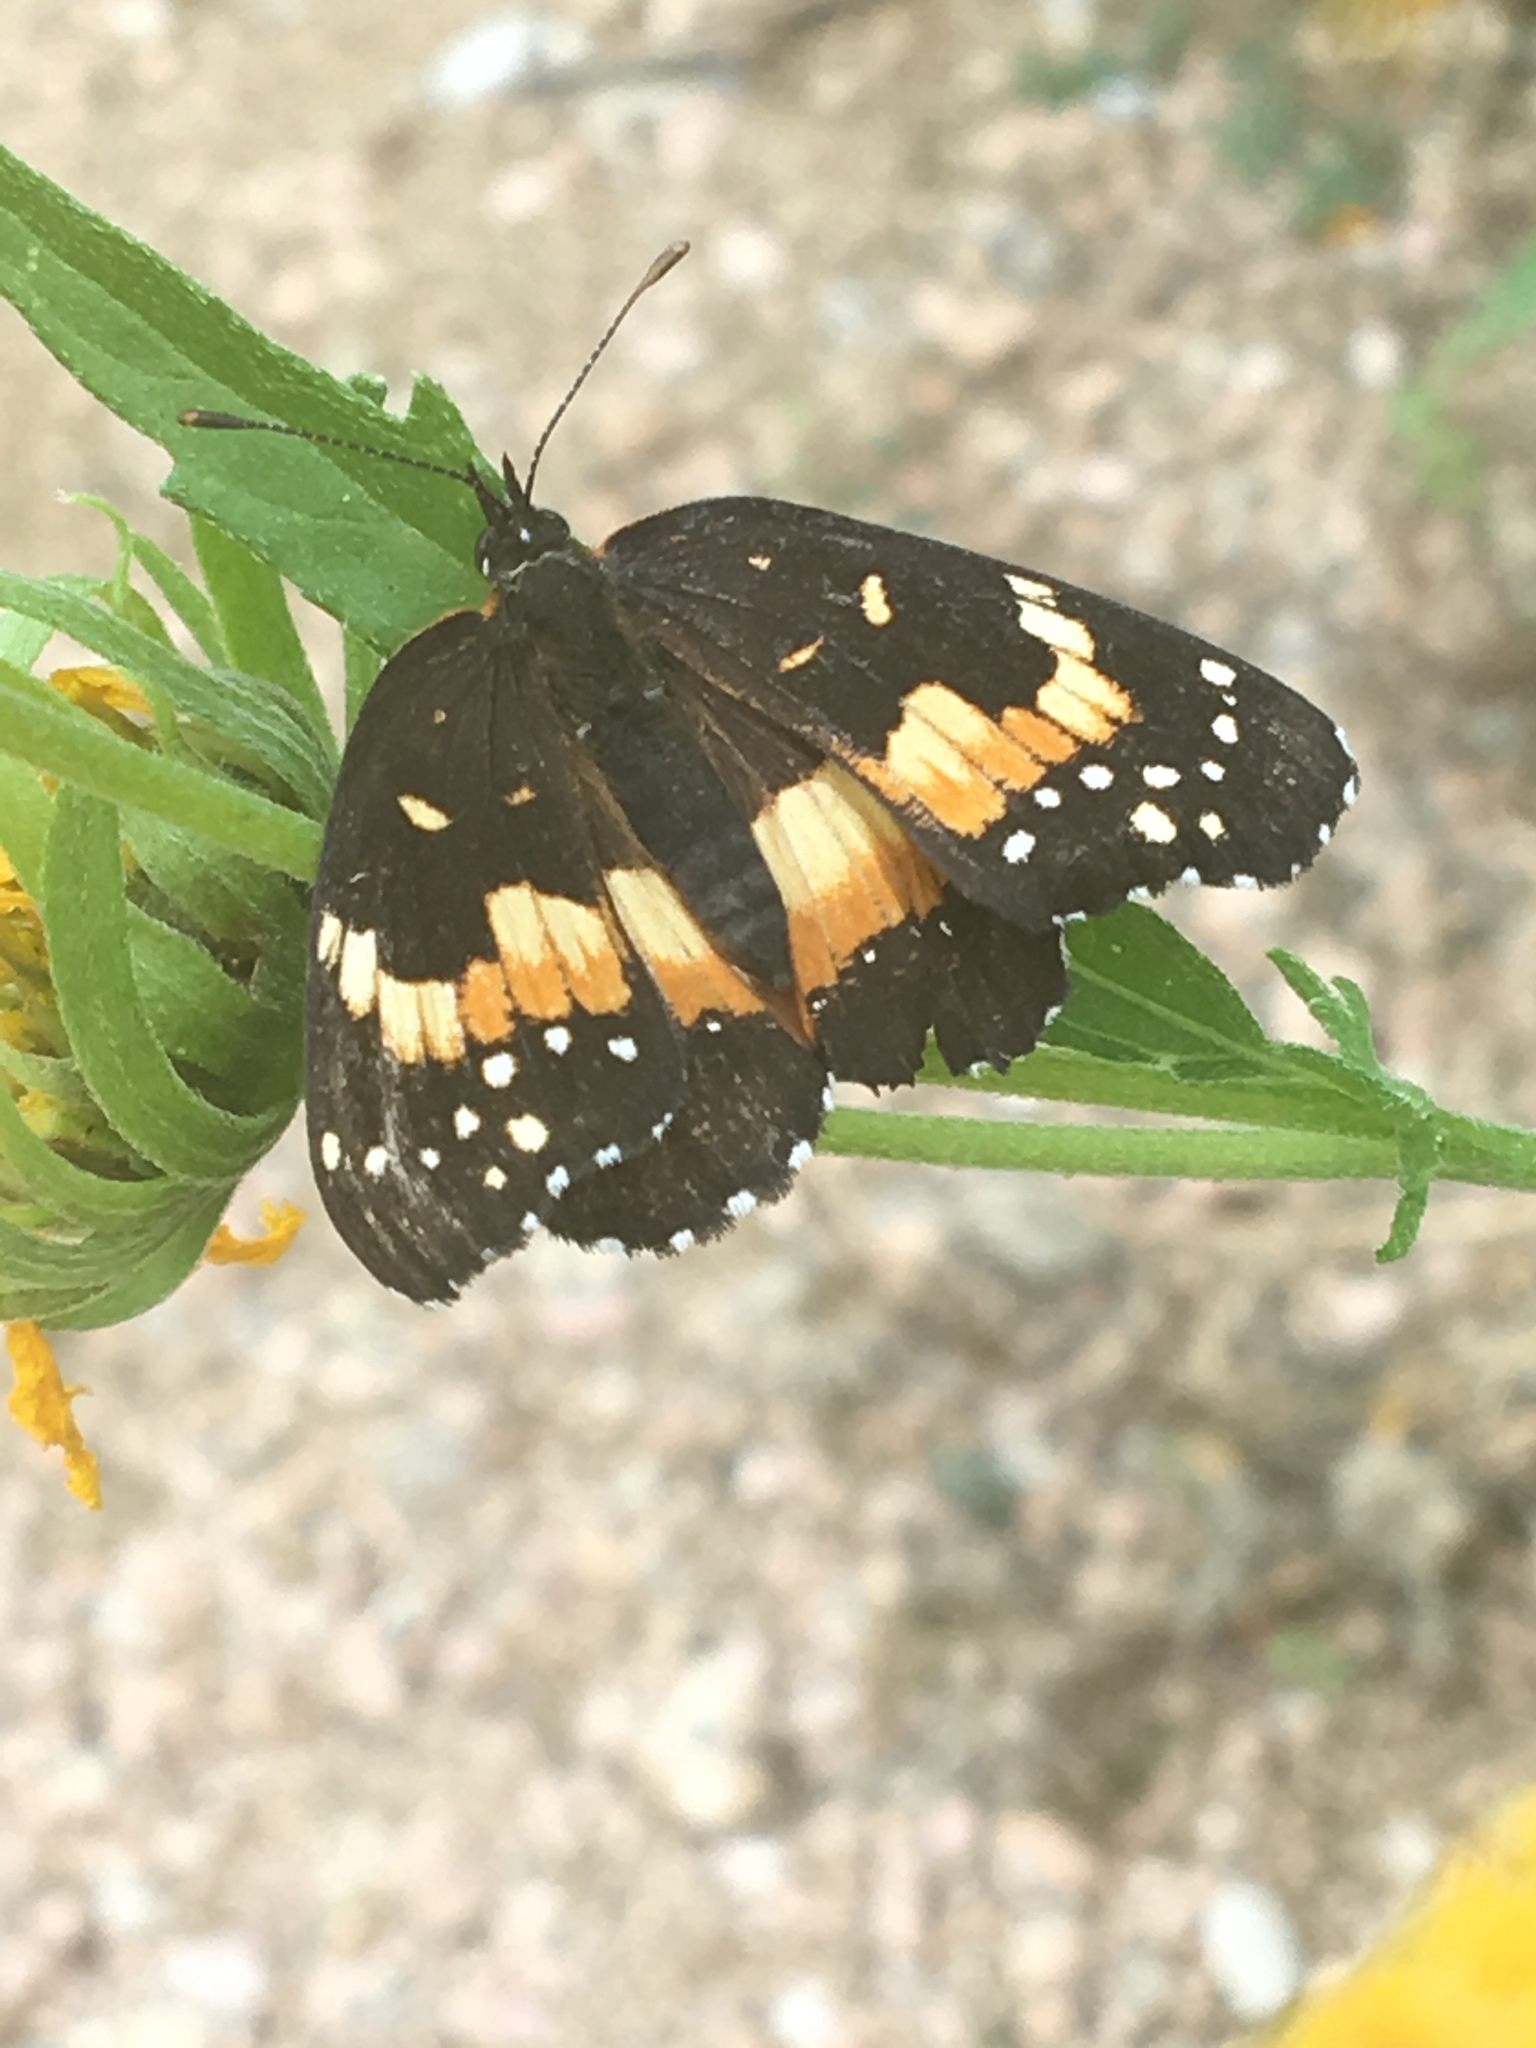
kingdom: Animalia
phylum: Arthropoda
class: Insecta
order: Lepidoptera
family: Nymphalidae
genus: Chlosyne
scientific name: Chlosyne lacinia
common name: Bordered patch
